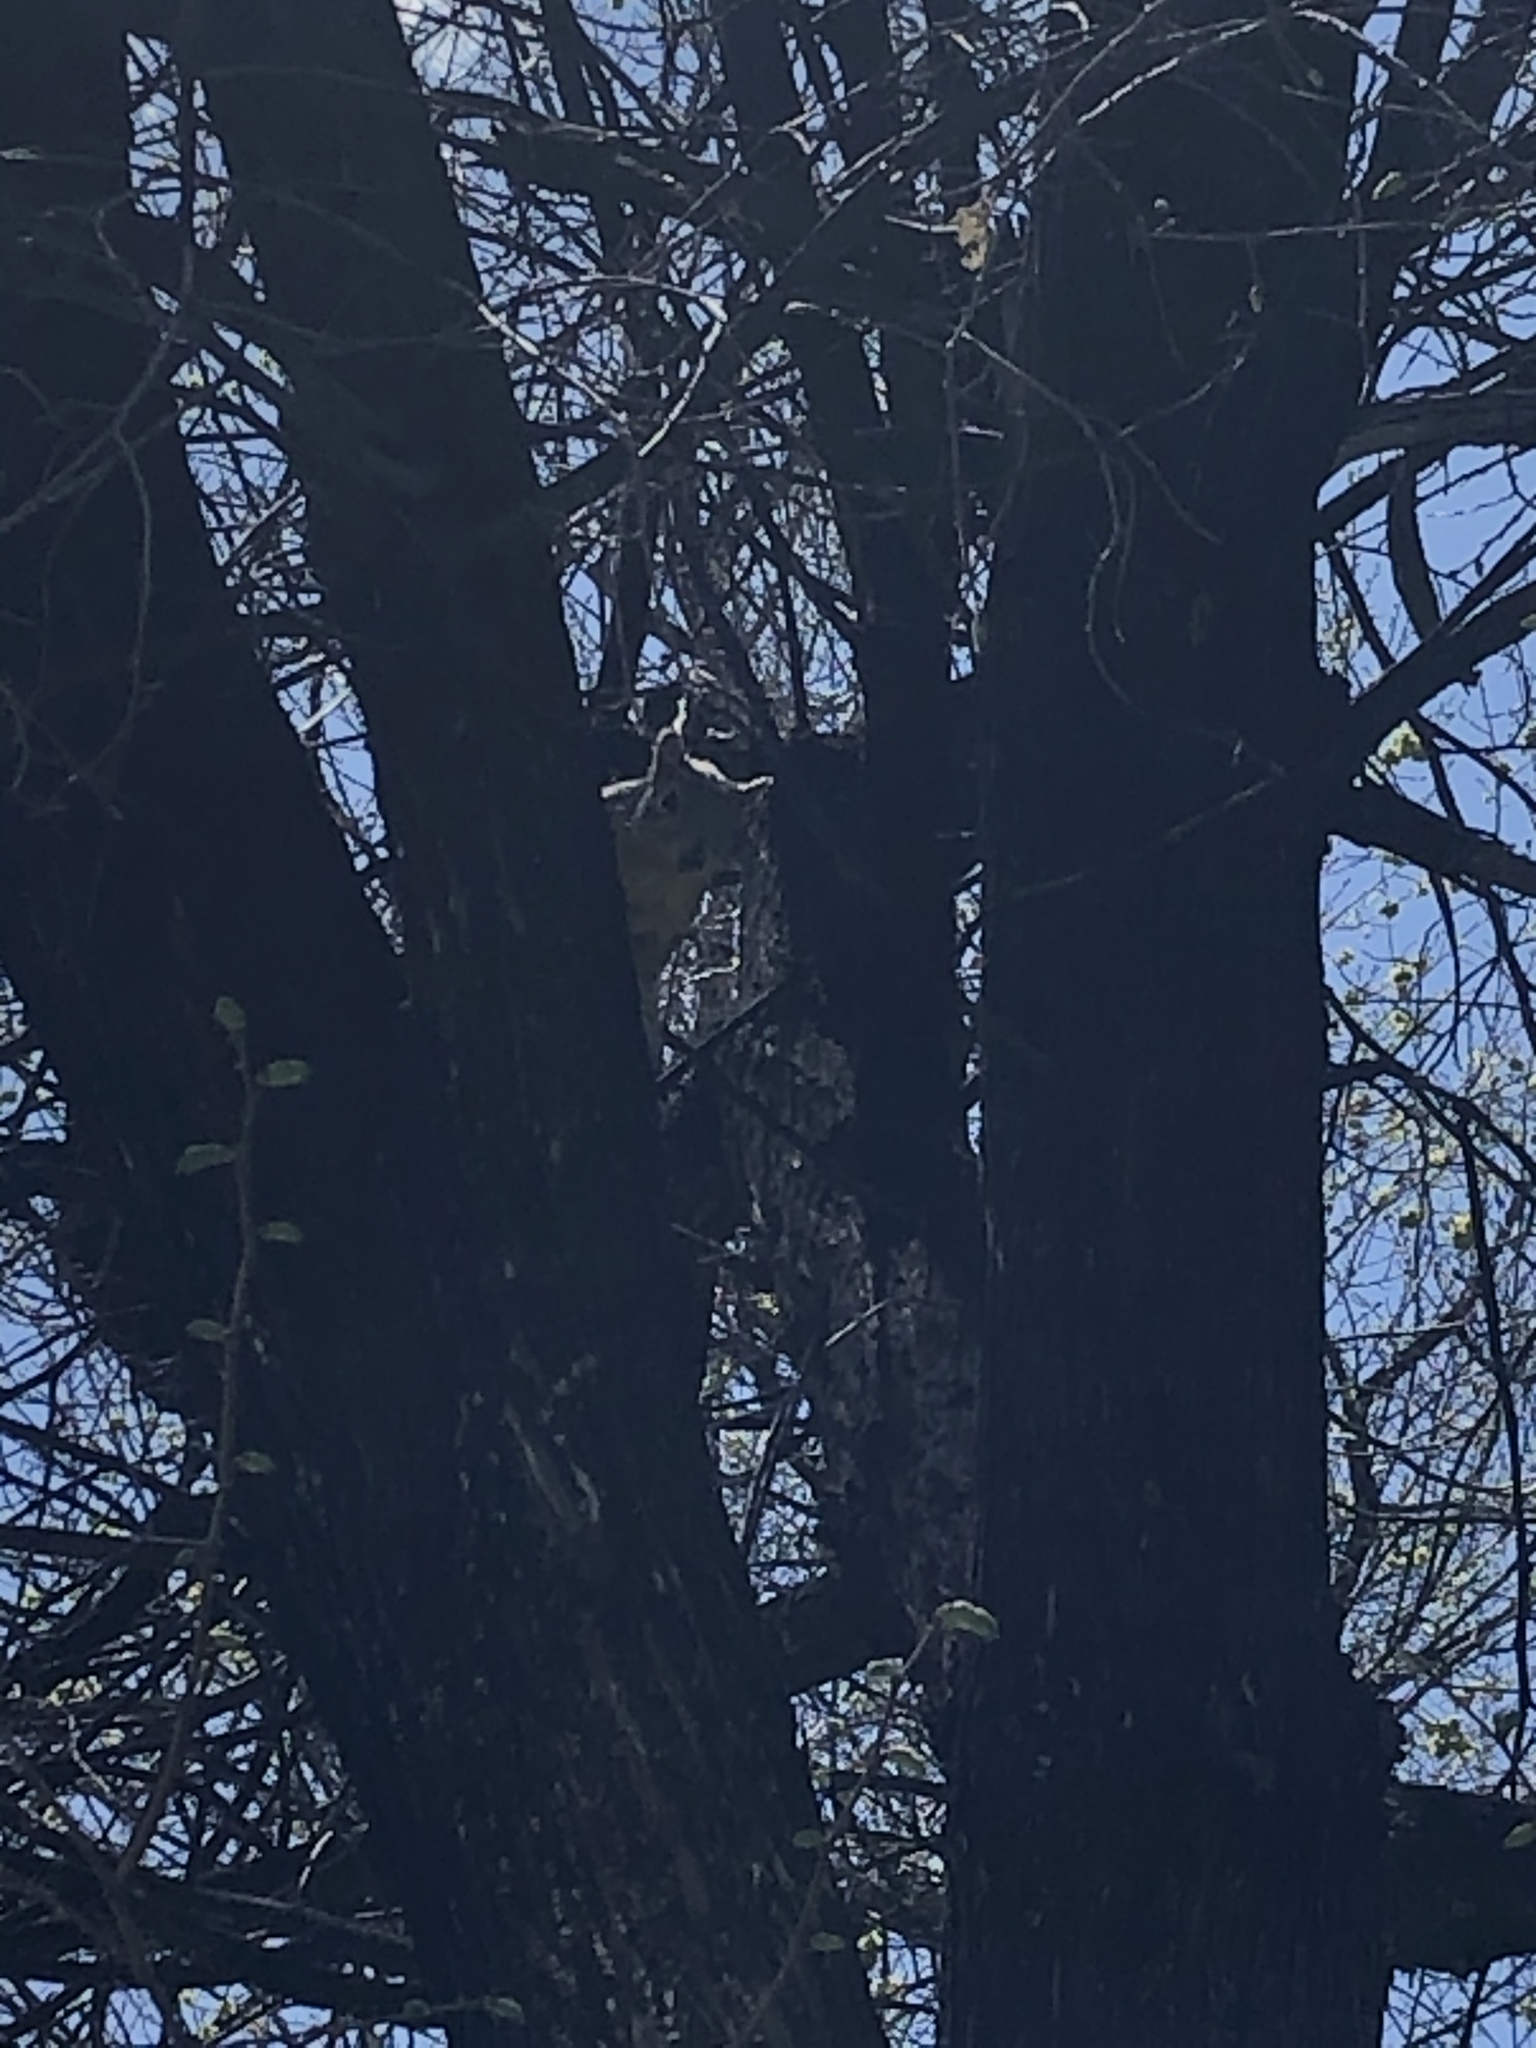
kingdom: Animalia
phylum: Chordata
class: Mammalia
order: Rodentia
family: Sciuridae
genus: Sciurus
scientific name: Sciurus niger
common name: Fox squirrel
